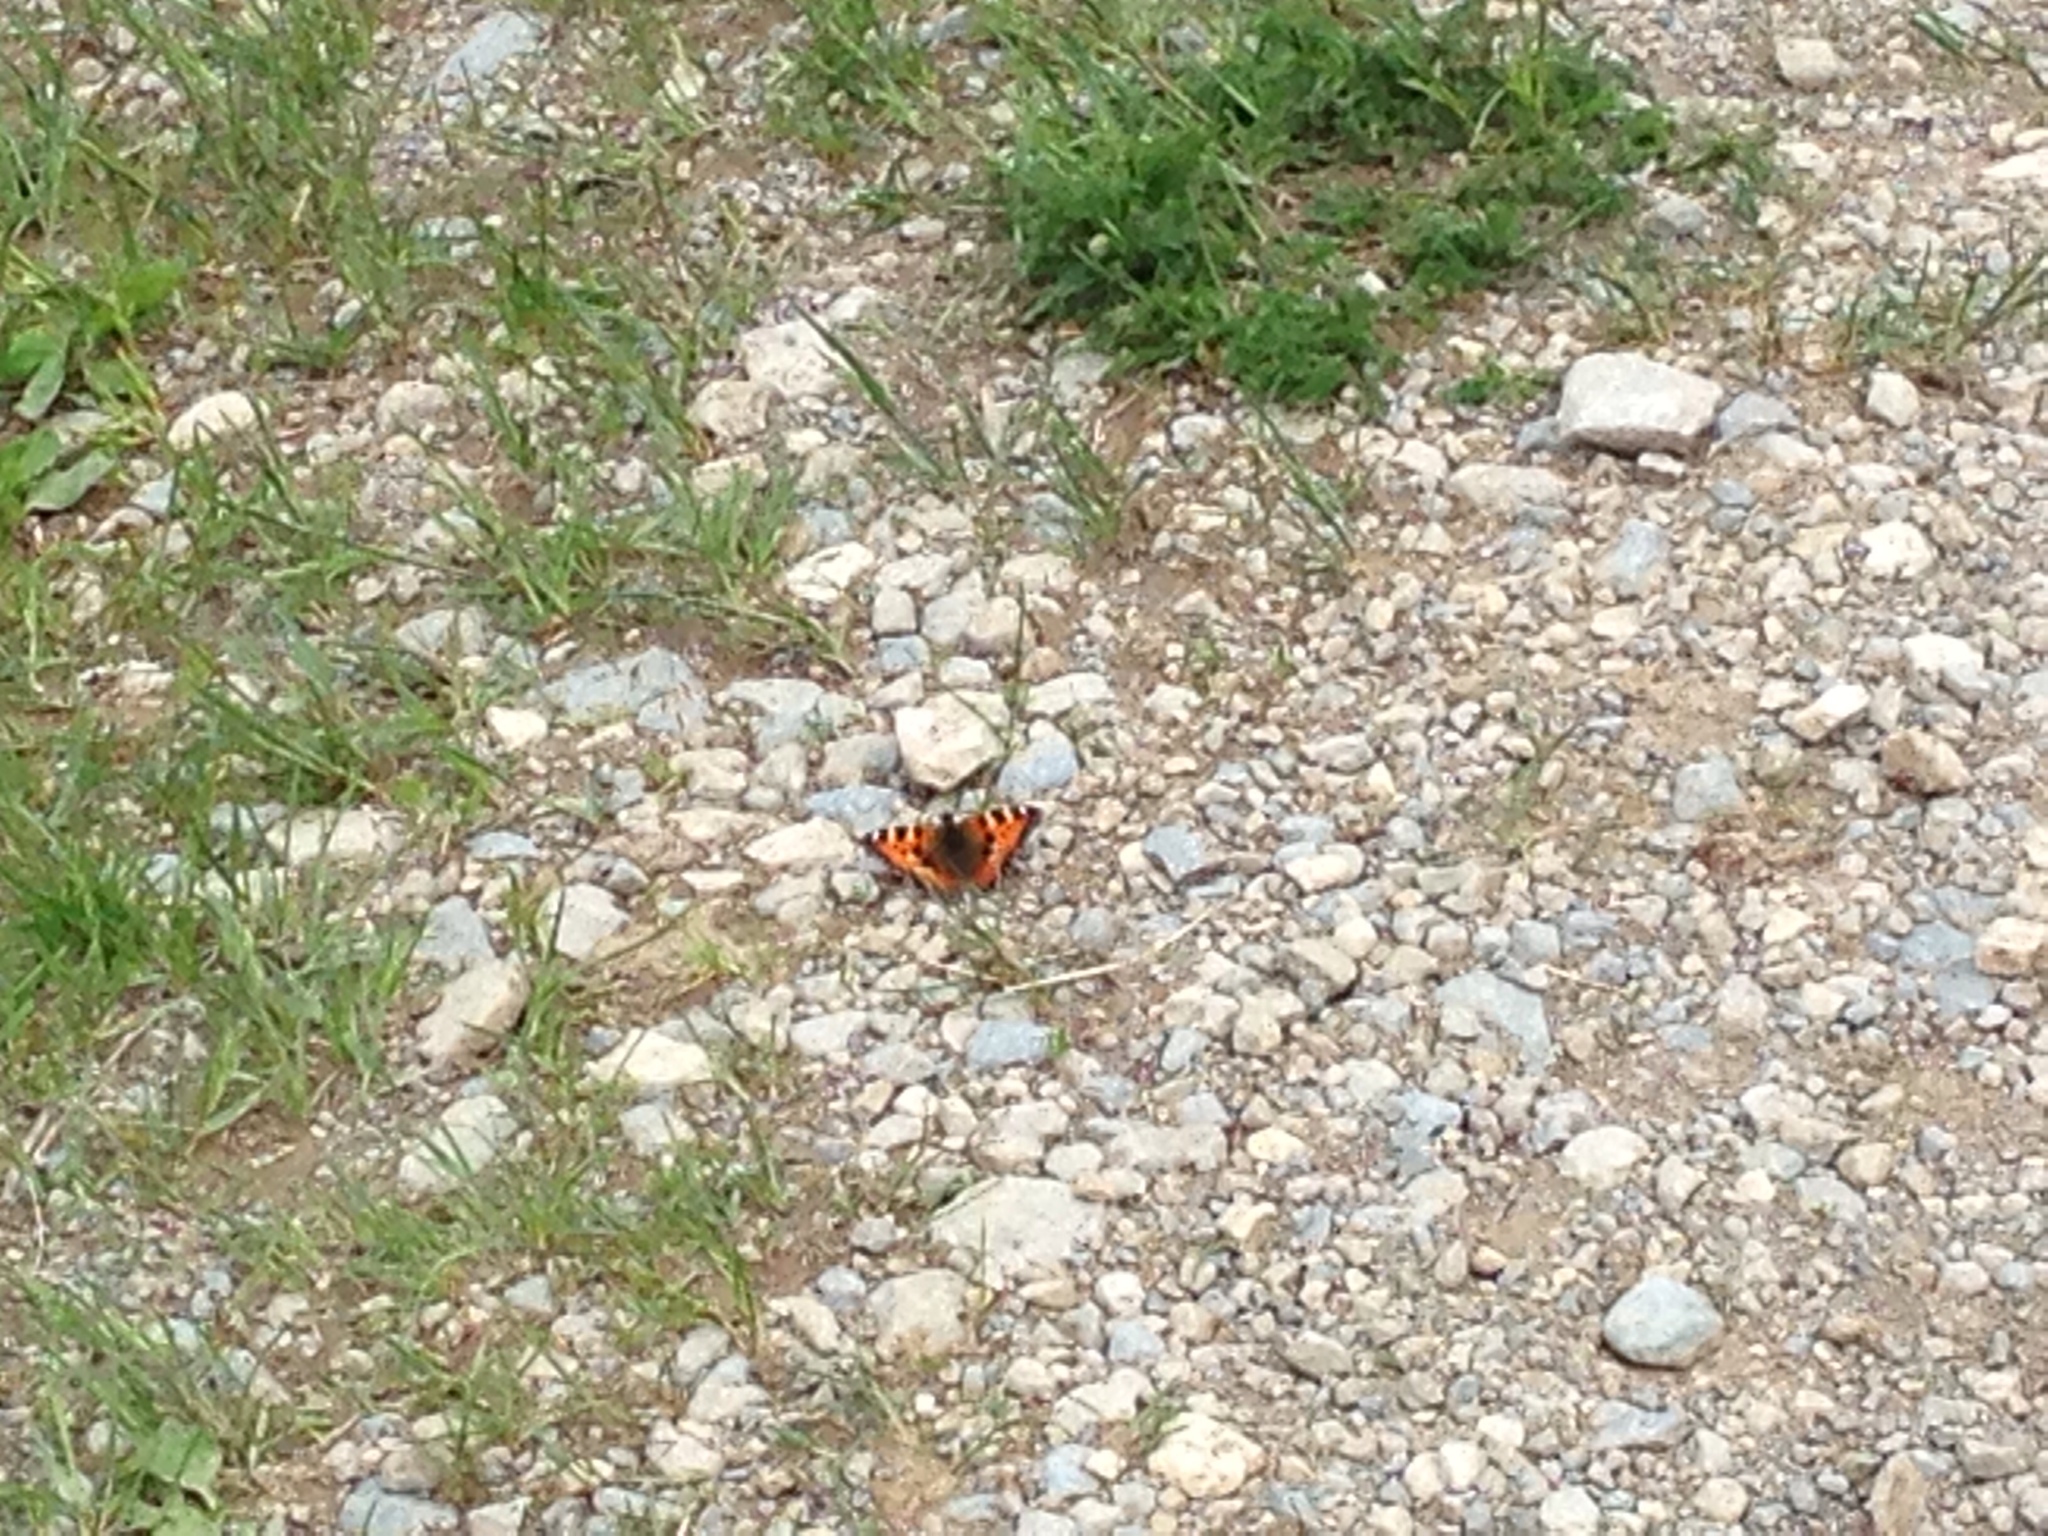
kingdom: Animalia
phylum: Arthropoda
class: Insecta
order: Lepidoptera
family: Nymphalidae
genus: Aglais
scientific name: Aglais urticae
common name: Small tortoiseshell
